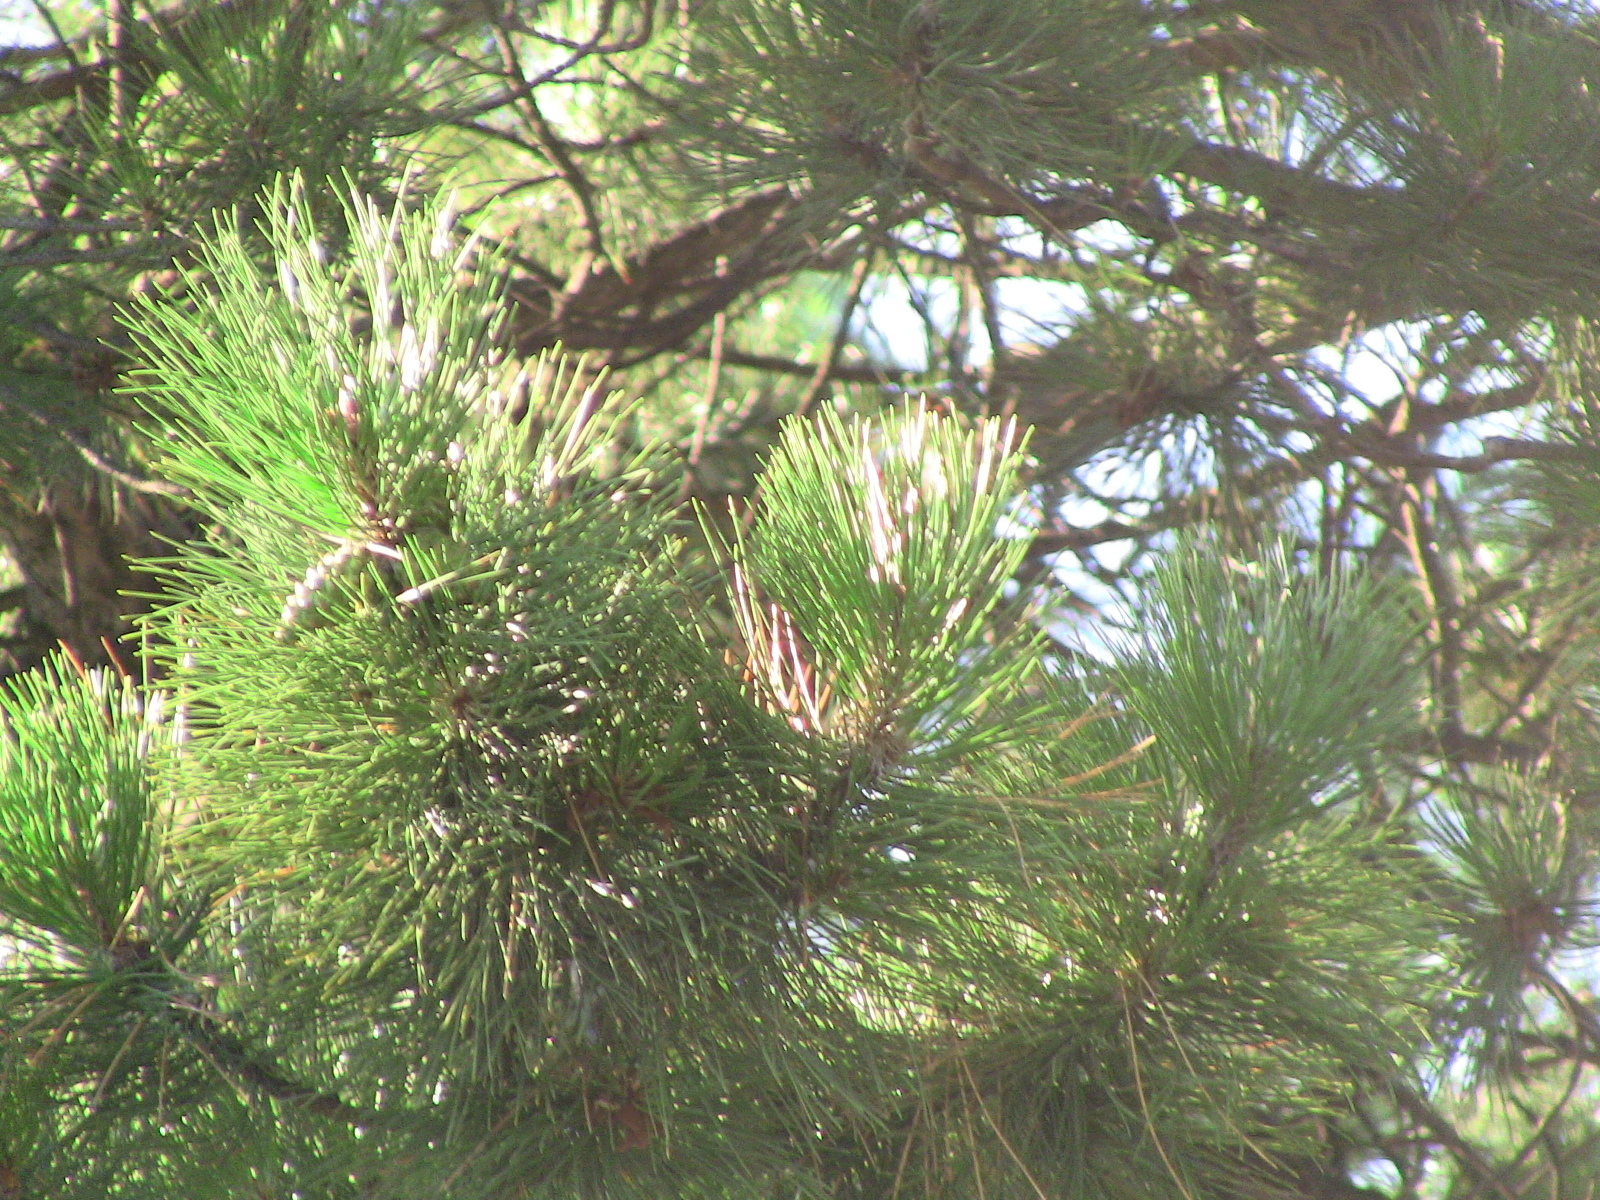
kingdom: Plantae
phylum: Tracheophyta
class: Pinopsida
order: Pinales
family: Pinaceae
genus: Pinus
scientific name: Pinus banksiana
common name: Jack pine
